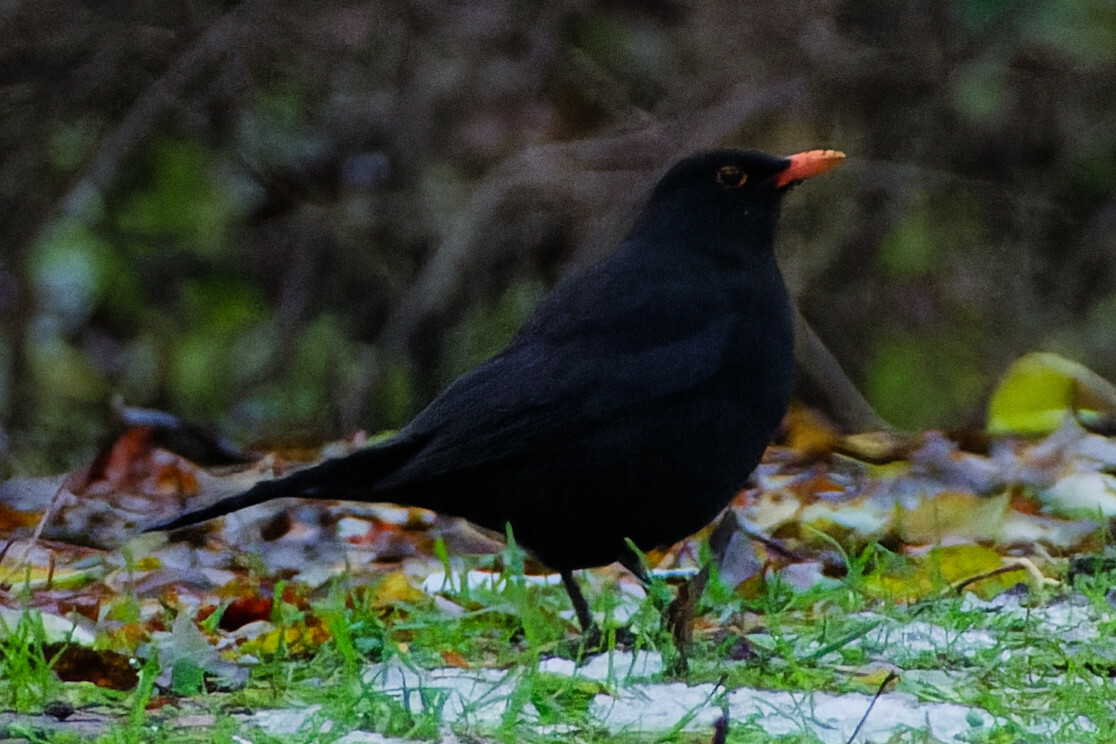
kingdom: Animalia
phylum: Chordata
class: Aves
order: Passeriformes
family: Turdidae
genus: Turdus
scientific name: Turdus merula
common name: Common blackbird
